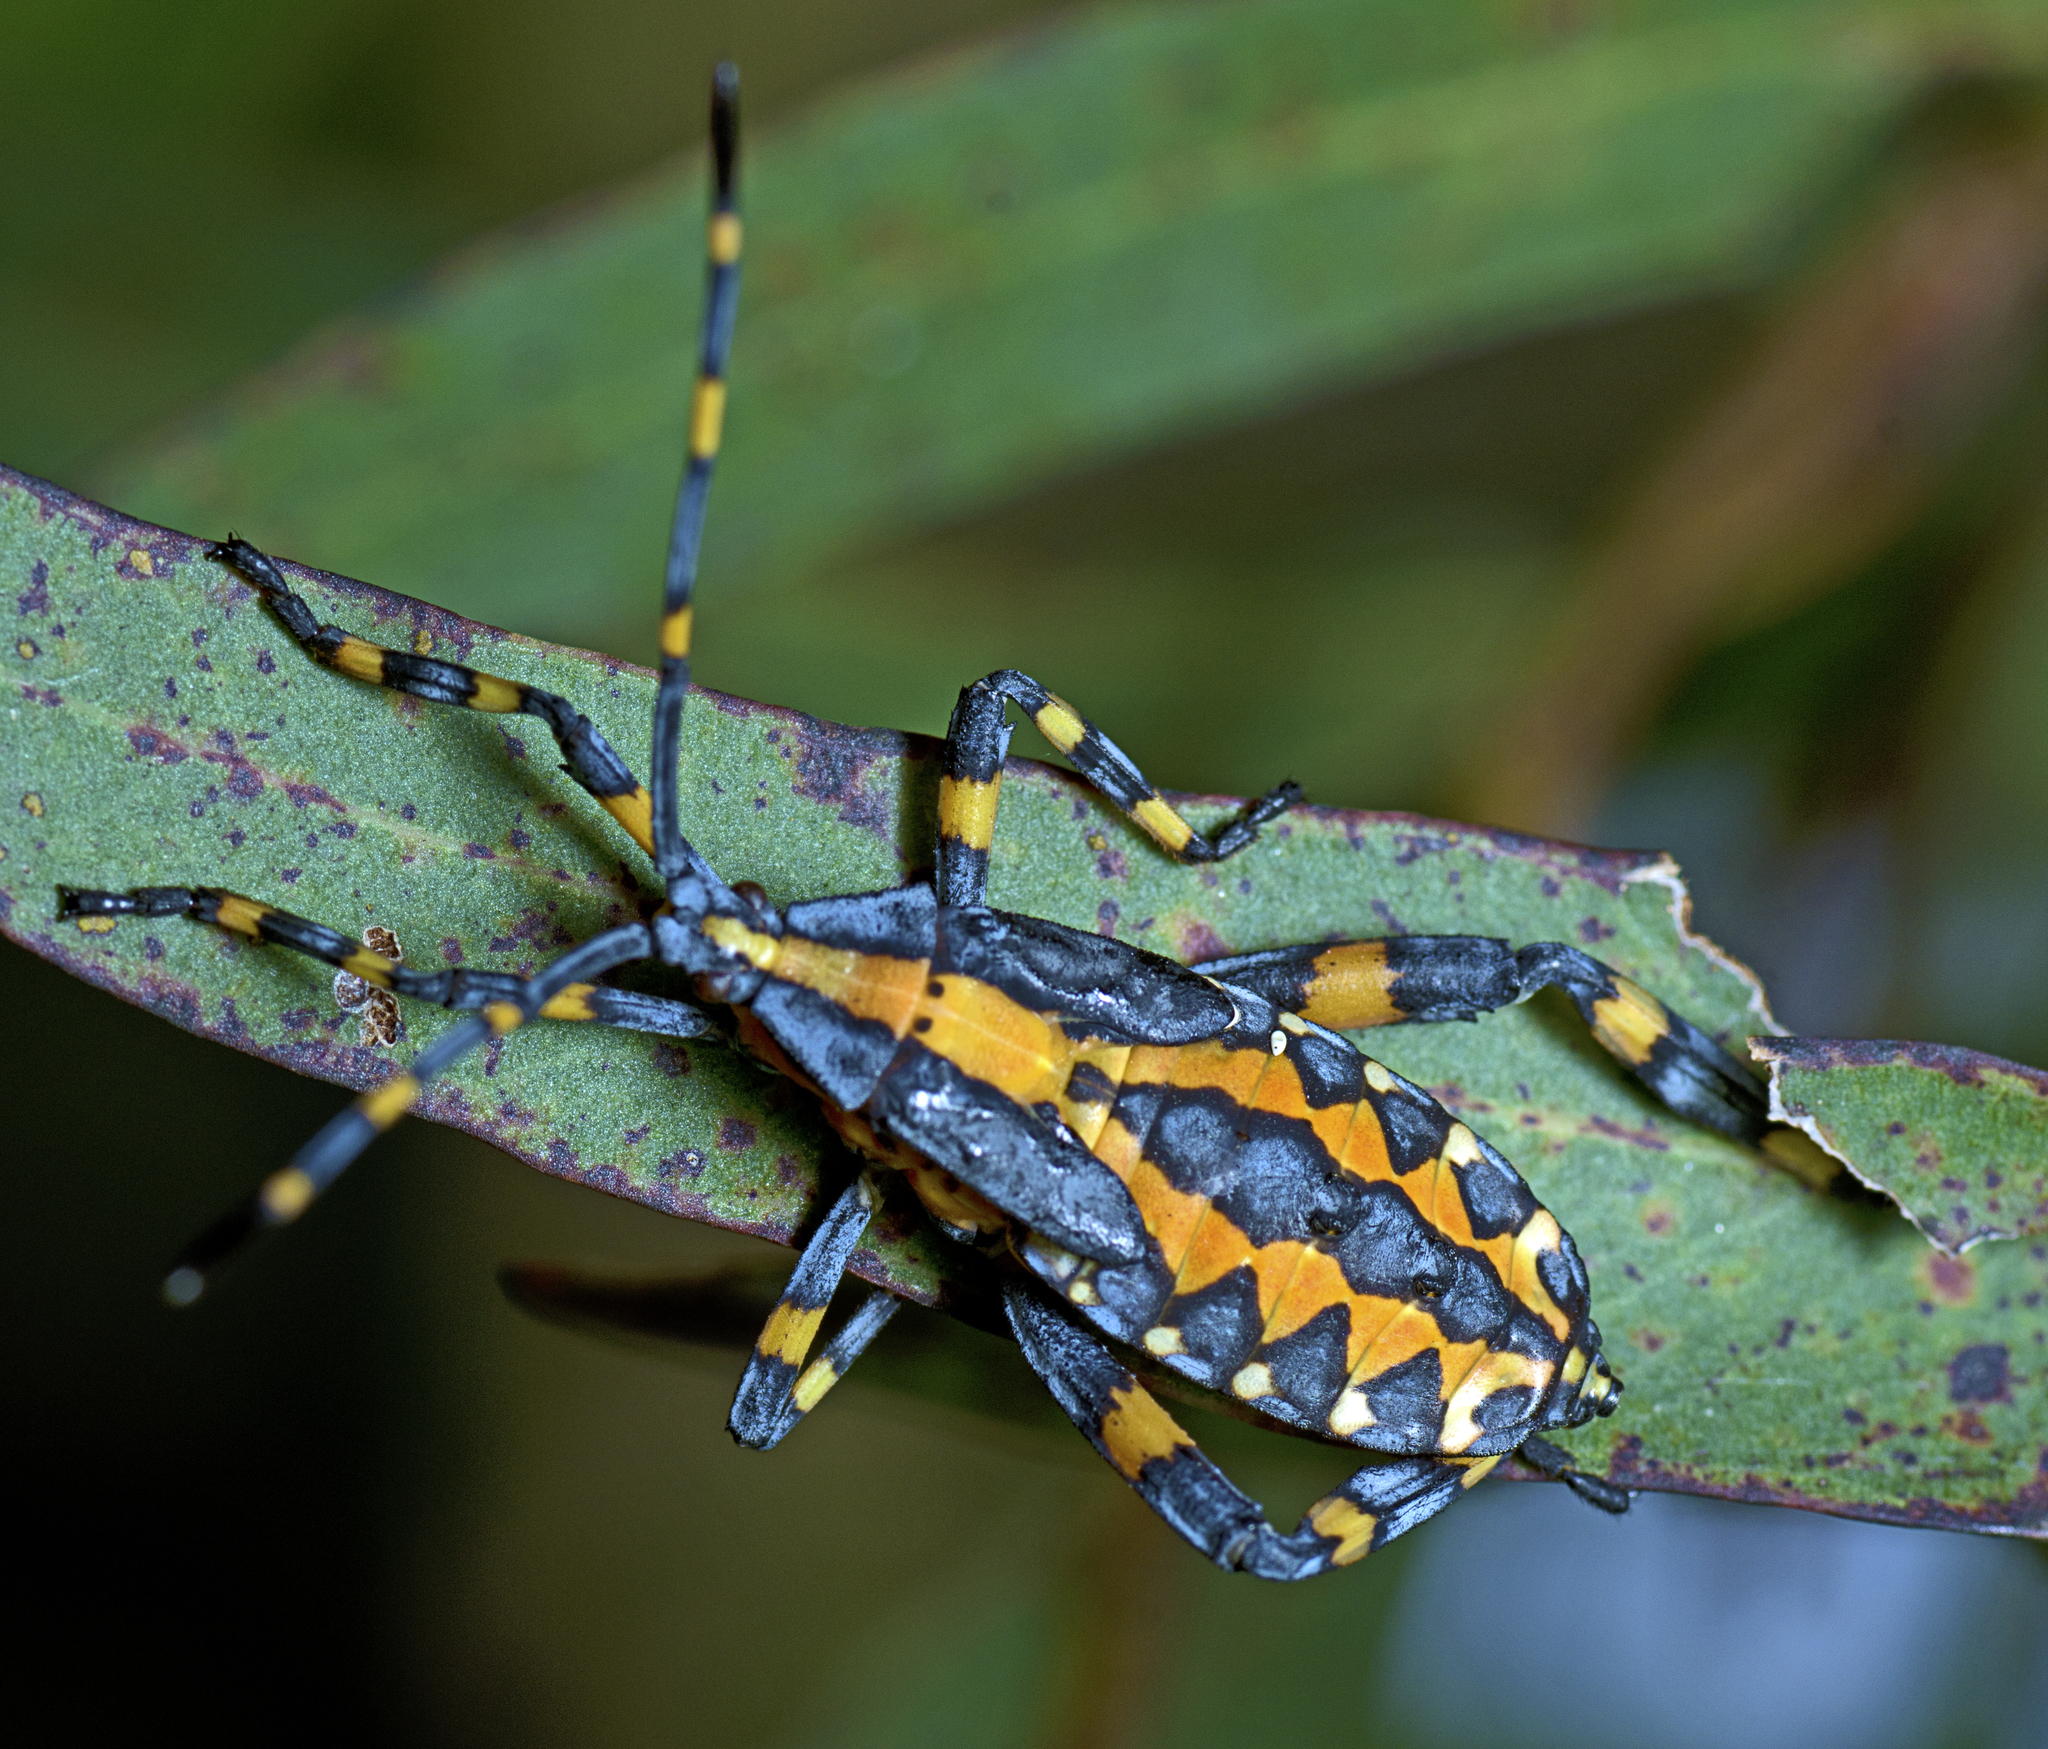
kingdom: Animalia
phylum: Arthropoda
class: Insecta
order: Hemiptera
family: Coreidae
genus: Amorbus
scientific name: Amorbus atomarius
